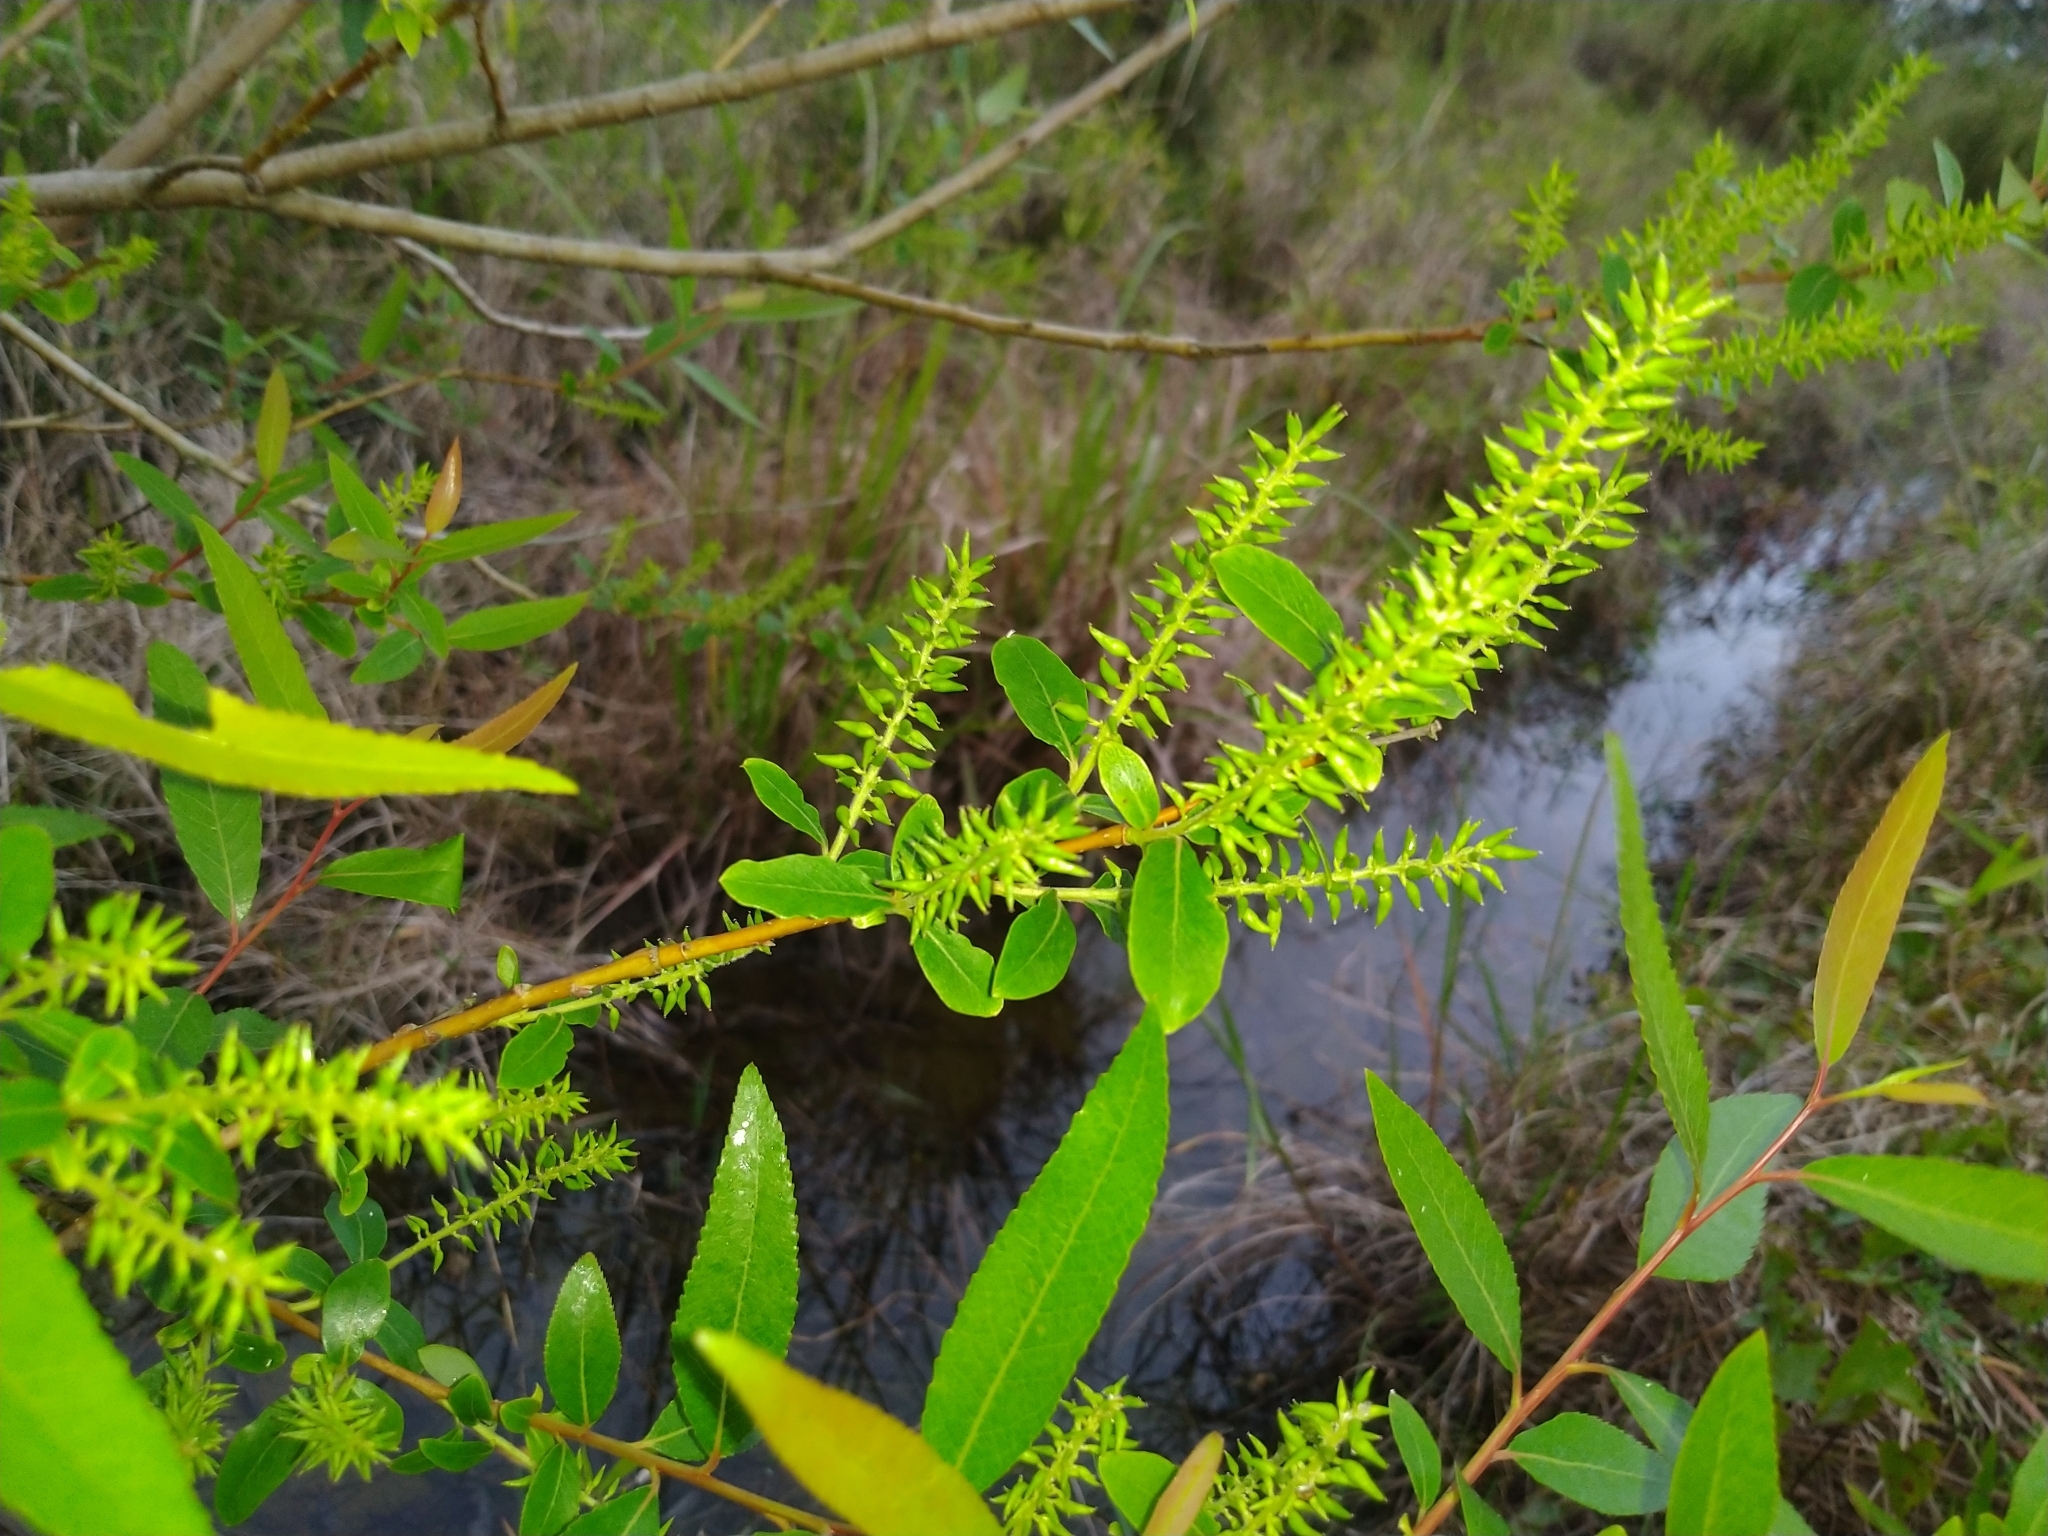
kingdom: Plantae
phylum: Tracheophyta
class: Magnoliopsida
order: Malpighiales
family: Salicaceae
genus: Salix
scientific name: Salix mesnyi
